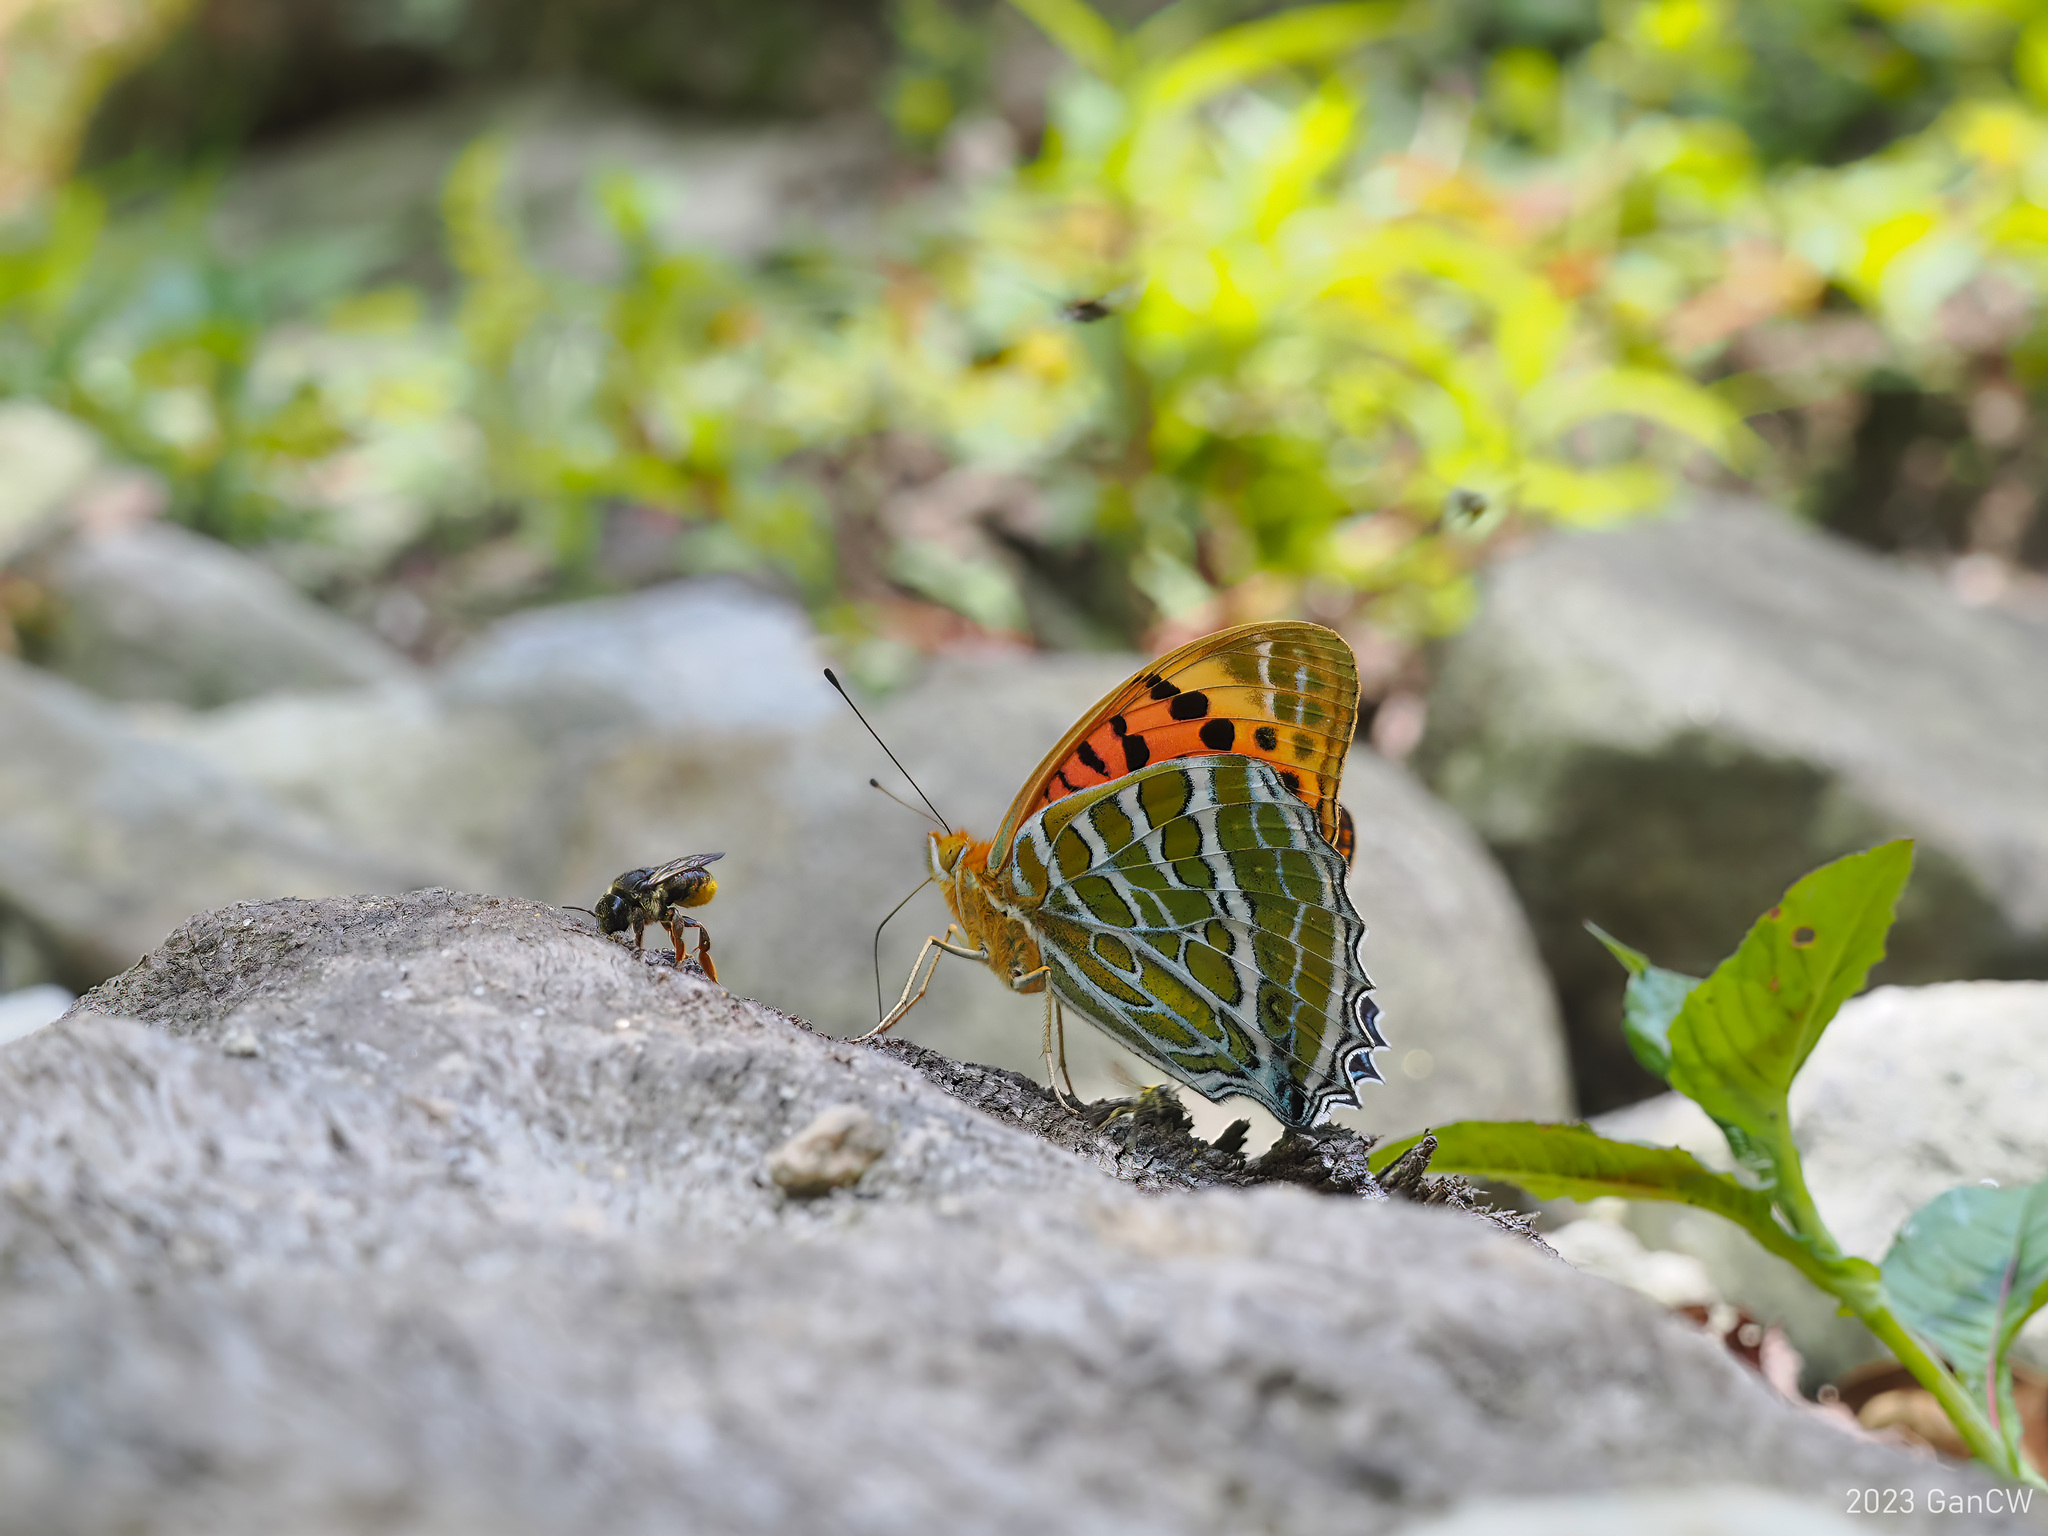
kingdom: Animalia
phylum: Arthropoda
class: Insecta
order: Lepidoptera
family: Nymphalidae
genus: Childrena
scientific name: Childrena childreni
